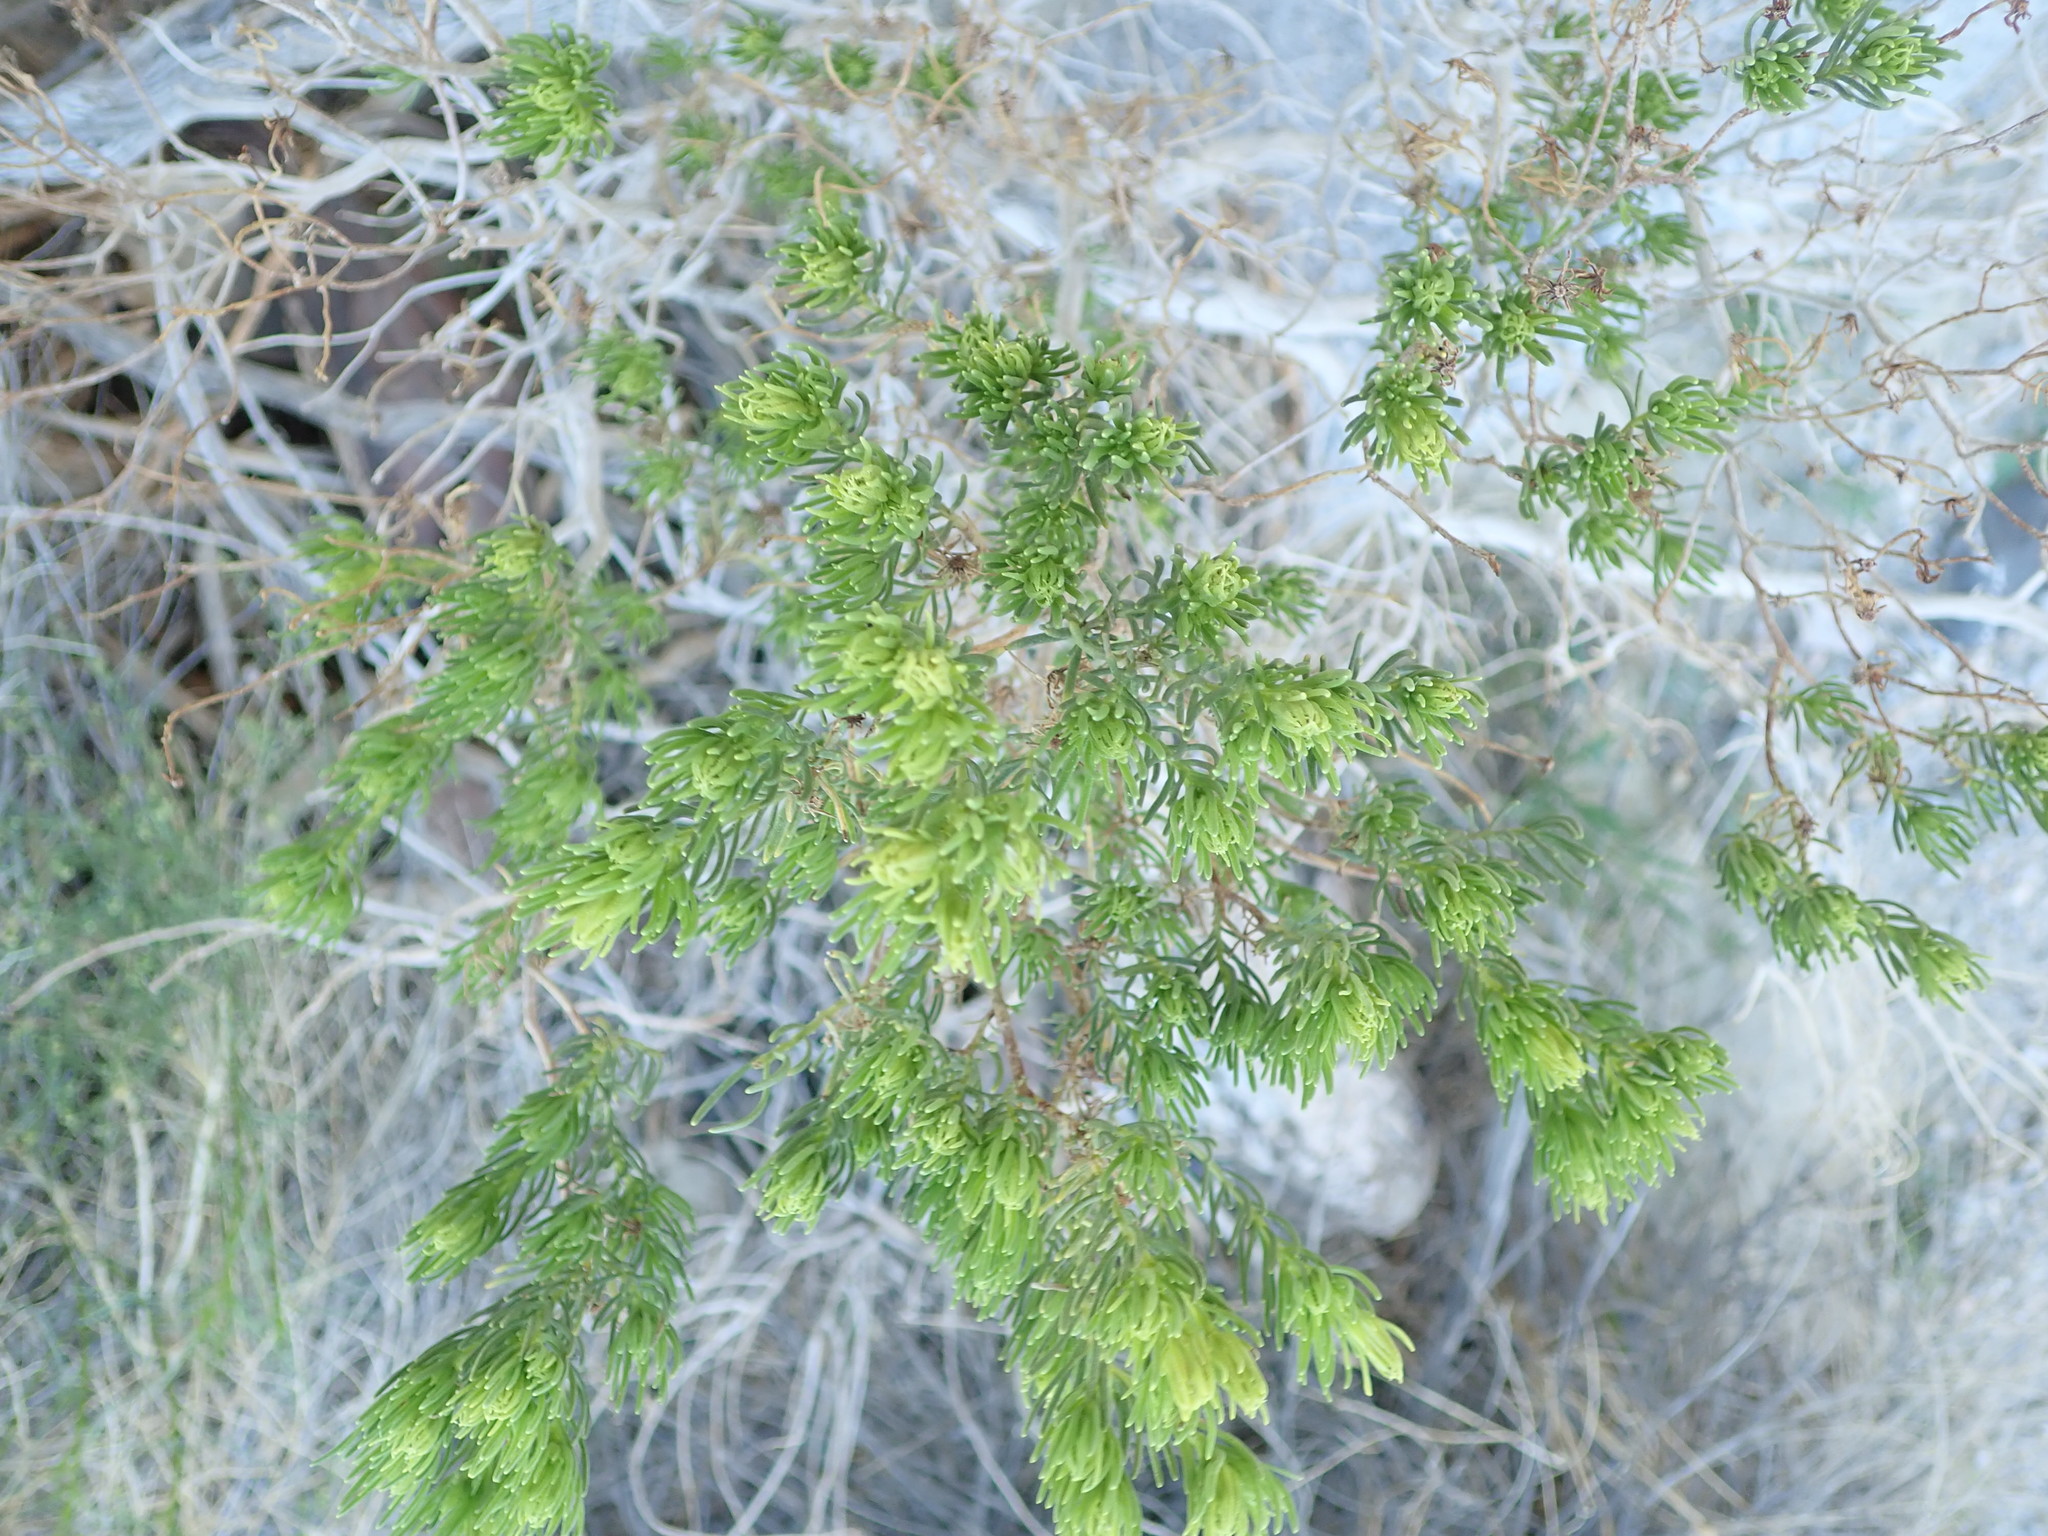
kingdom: Plantae
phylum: Tracheophyta
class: Magnoliopsida
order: Asterales
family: Asteraceae
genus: Peucephyllum
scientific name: Peucephyllum schottii
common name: Pygmy-cedar
